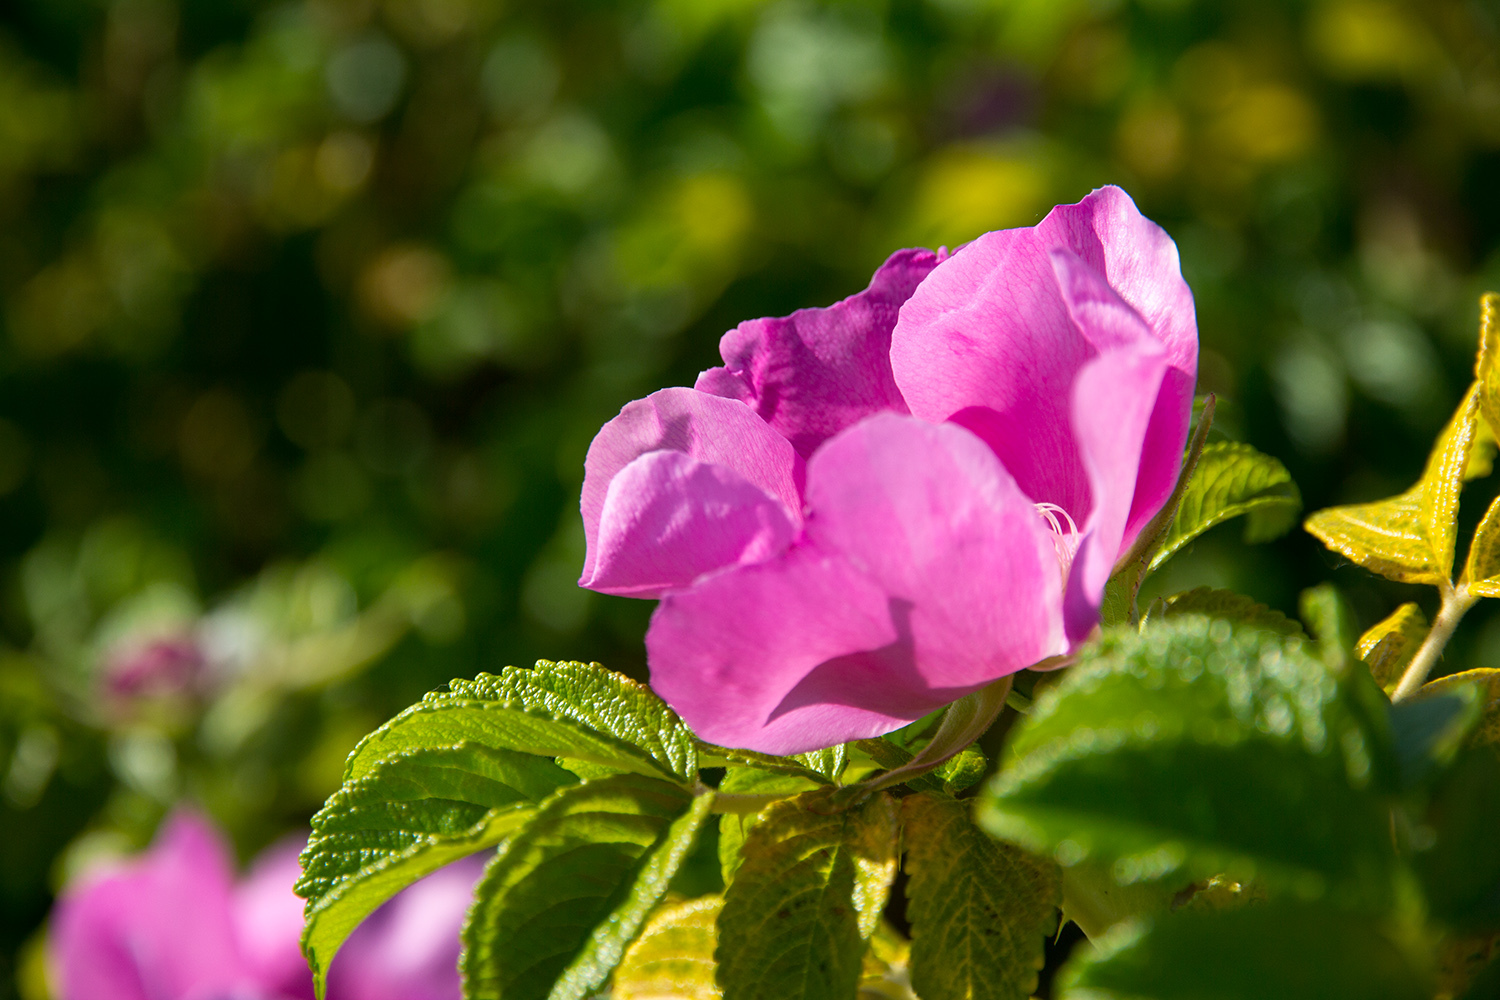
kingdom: Plantae
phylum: Tracheophyta
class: Magnoliopsida
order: Rosales
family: Rosaceae
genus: Rosa
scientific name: Rosa rugosa
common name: Japanese rose
